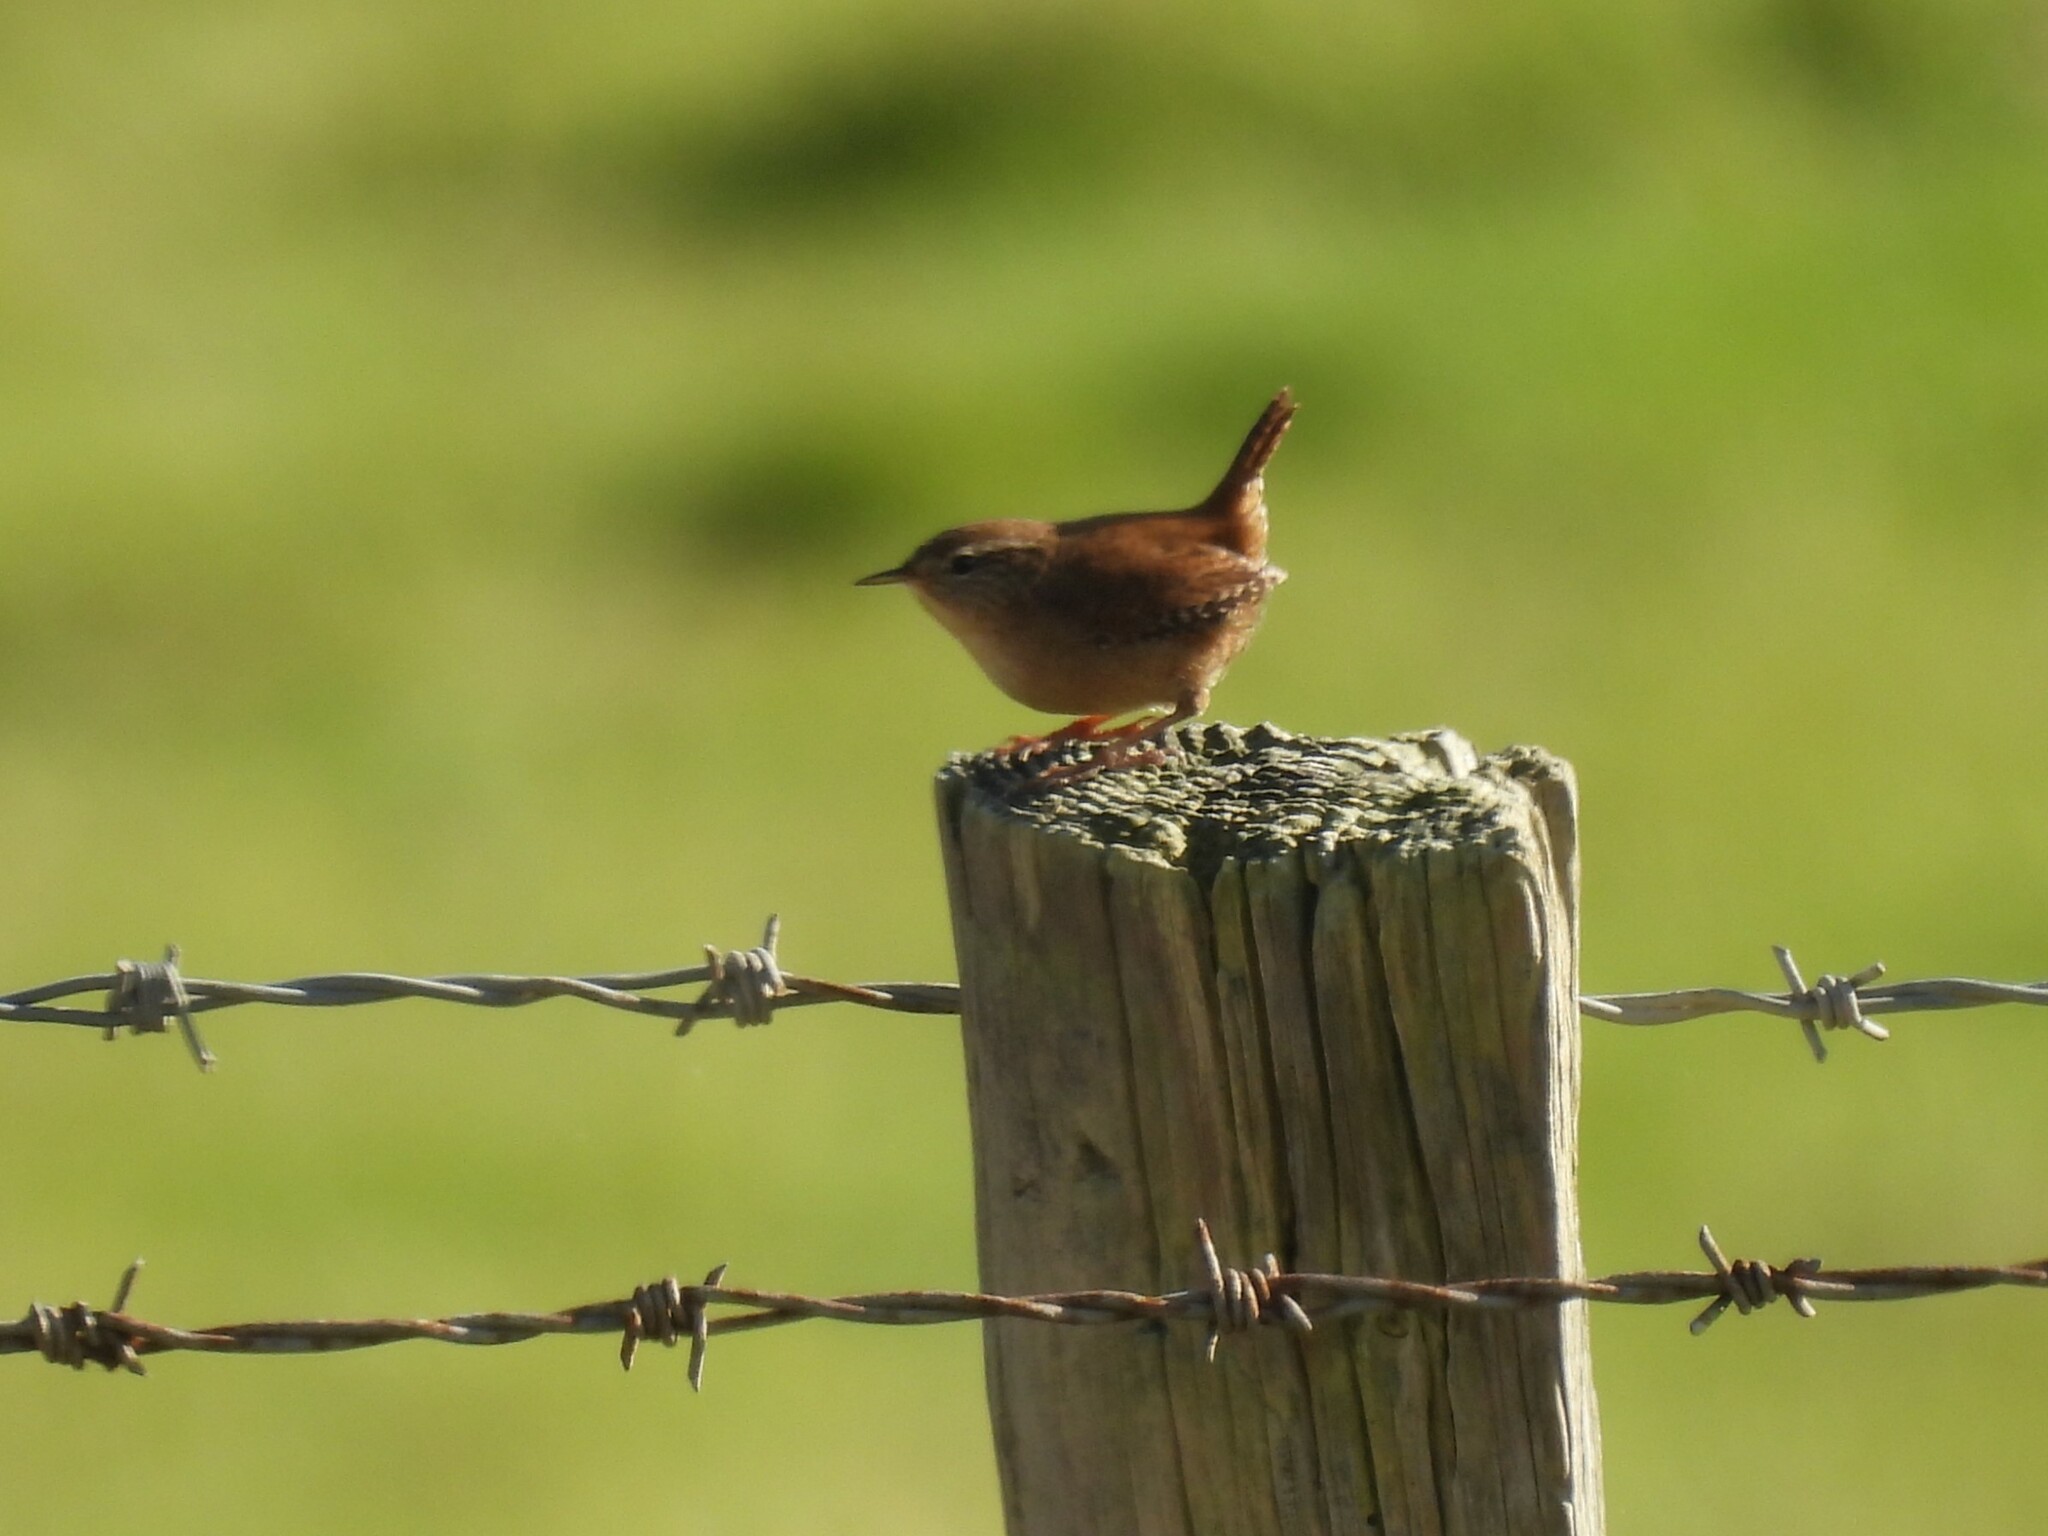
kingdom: Animalia
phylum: Chordata
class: Aves
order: Passeriformes
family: Troglodytidae
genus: Troglodytes
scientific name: Troglodytes troglodytes
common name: Eurasian wren
